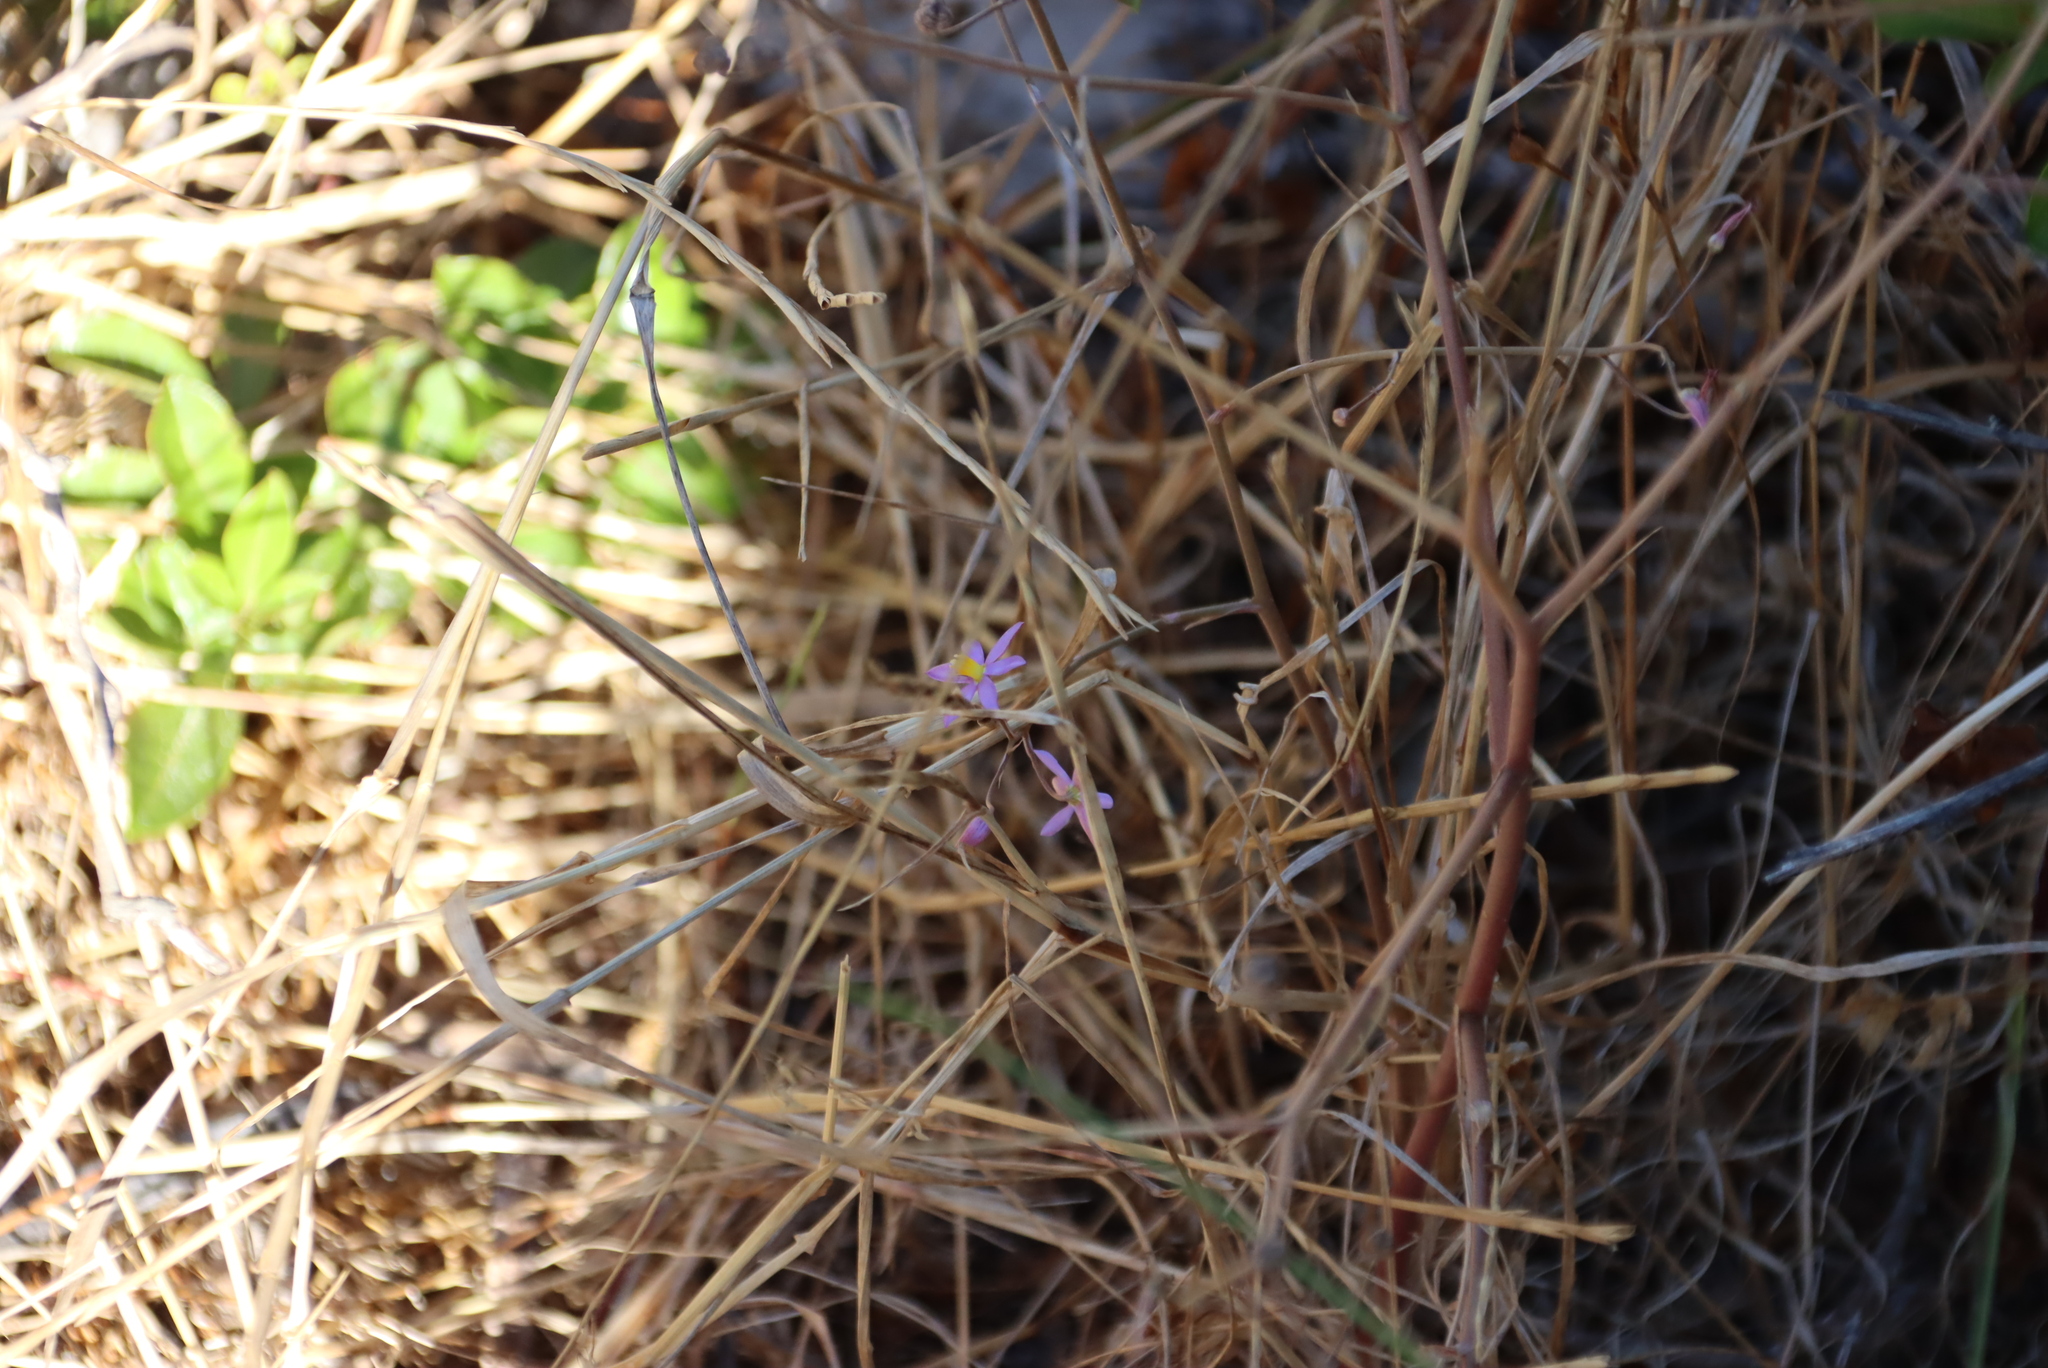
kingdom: Plantae
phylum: Tracheophyta
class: Liliopsida
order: Asparagales
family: Tecophilaeaceae
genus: Cyanella
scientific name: Cyanella hyacinthoides
